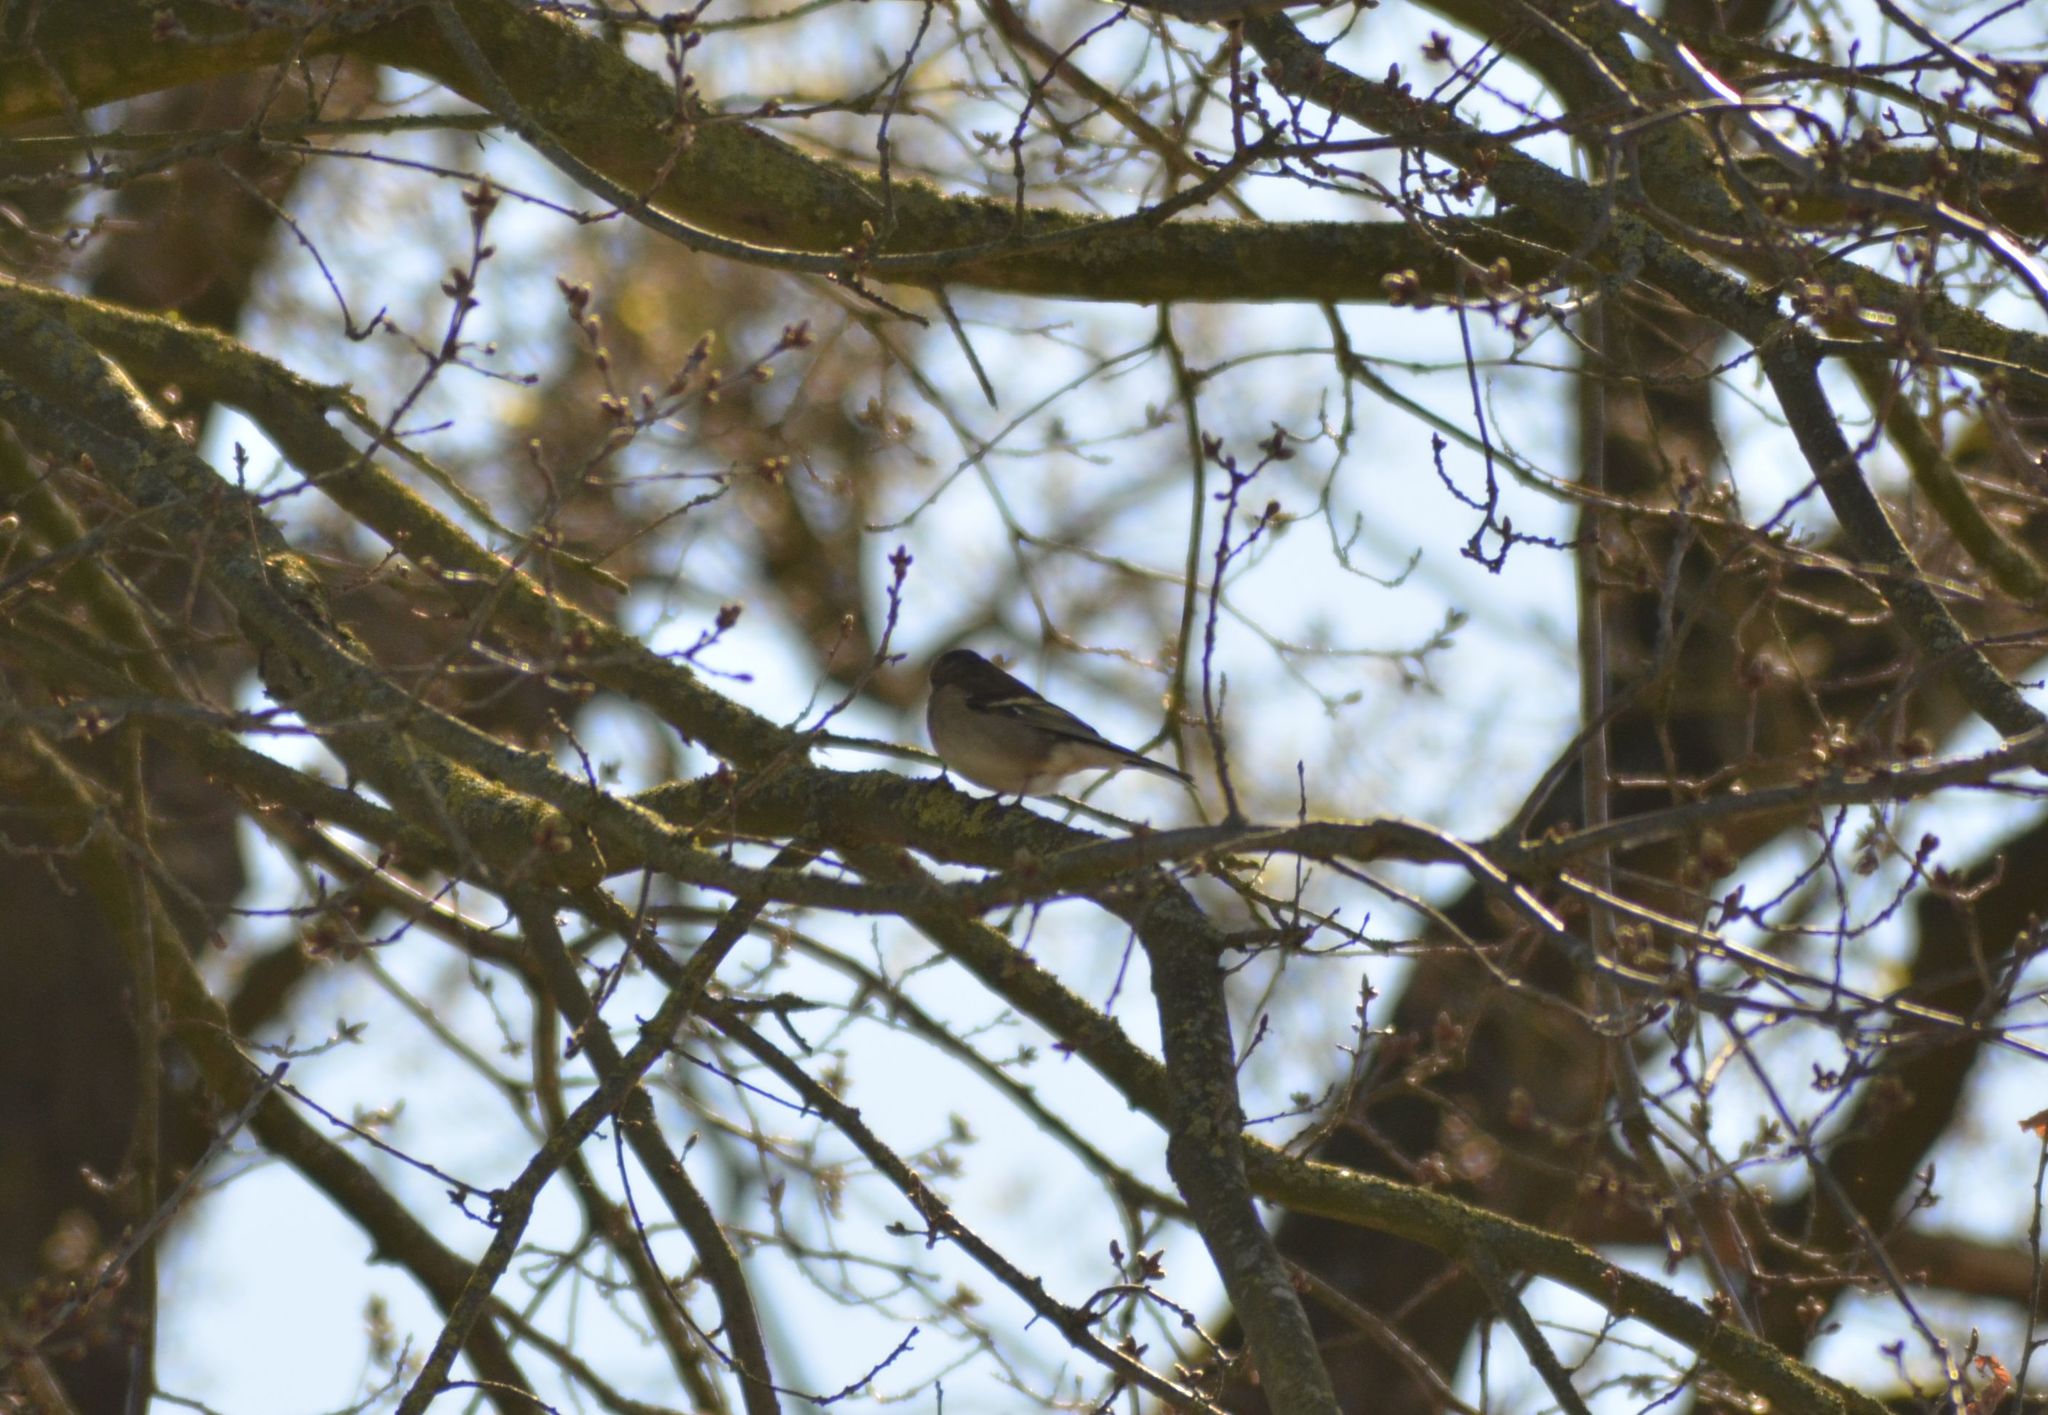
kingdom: Animalia
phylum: Chordata
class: Aves
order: Passeriformes
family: Fringillidae
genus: Fringilla
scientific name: Fringilla coelebs
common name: Common chaffinch
